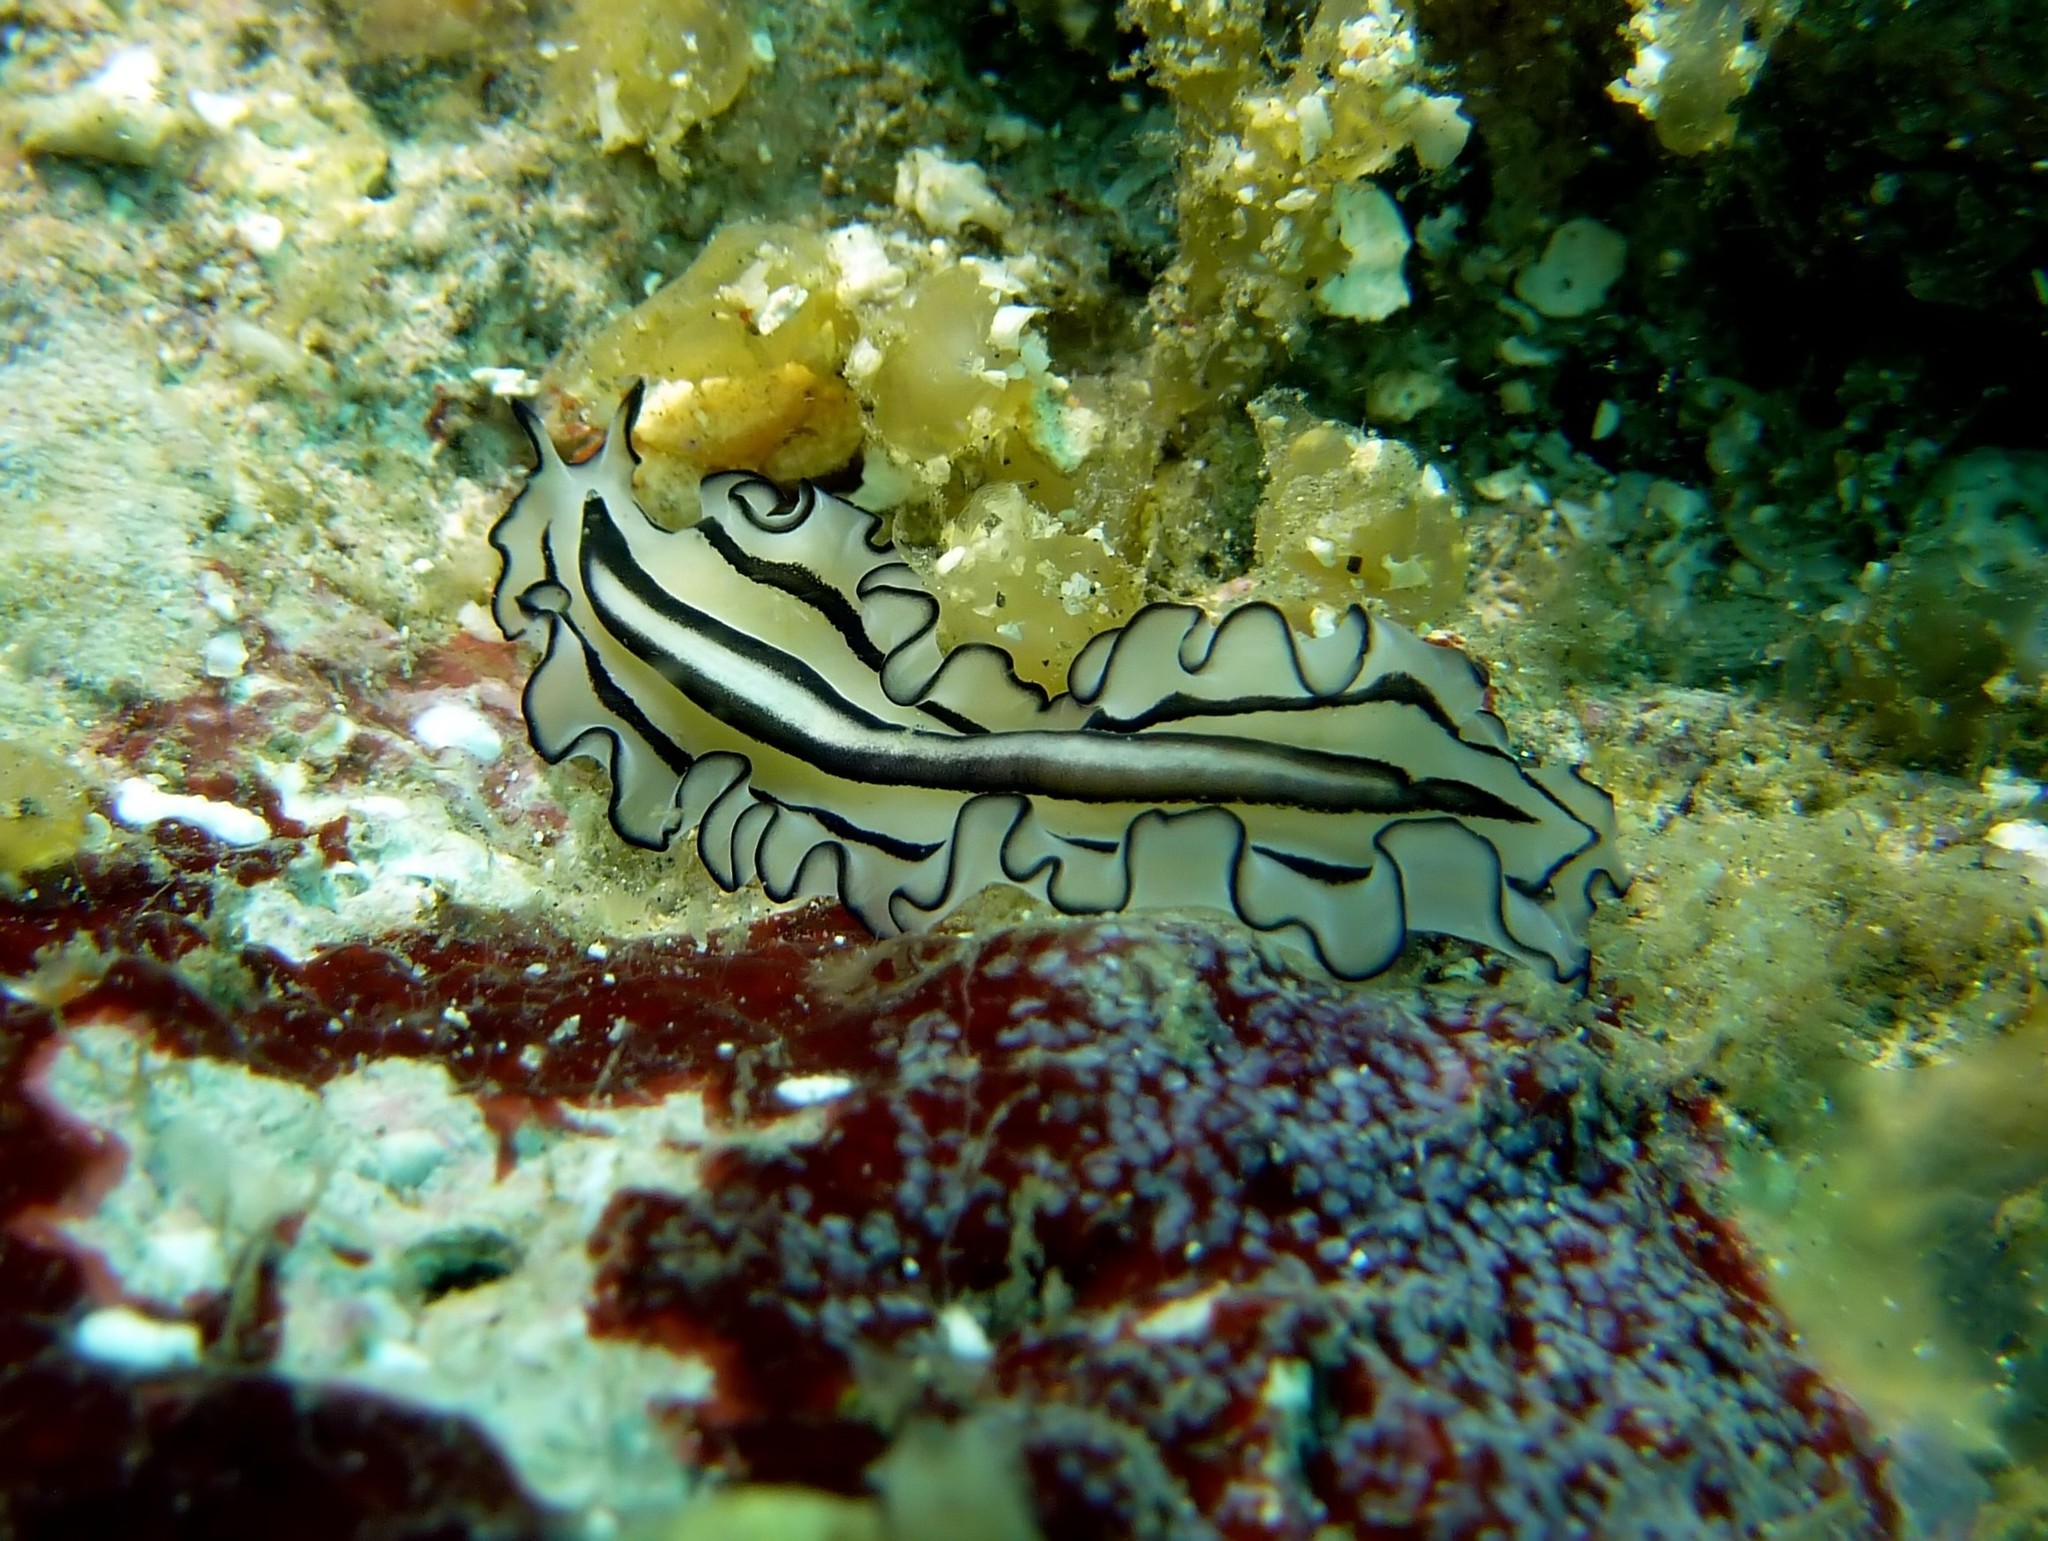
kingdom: Animalia
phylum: Platyhelminthes
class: Turbellaria
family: Pseudocerotidae
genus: Pseudobiceros
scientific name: Pseudobiceros gratus
